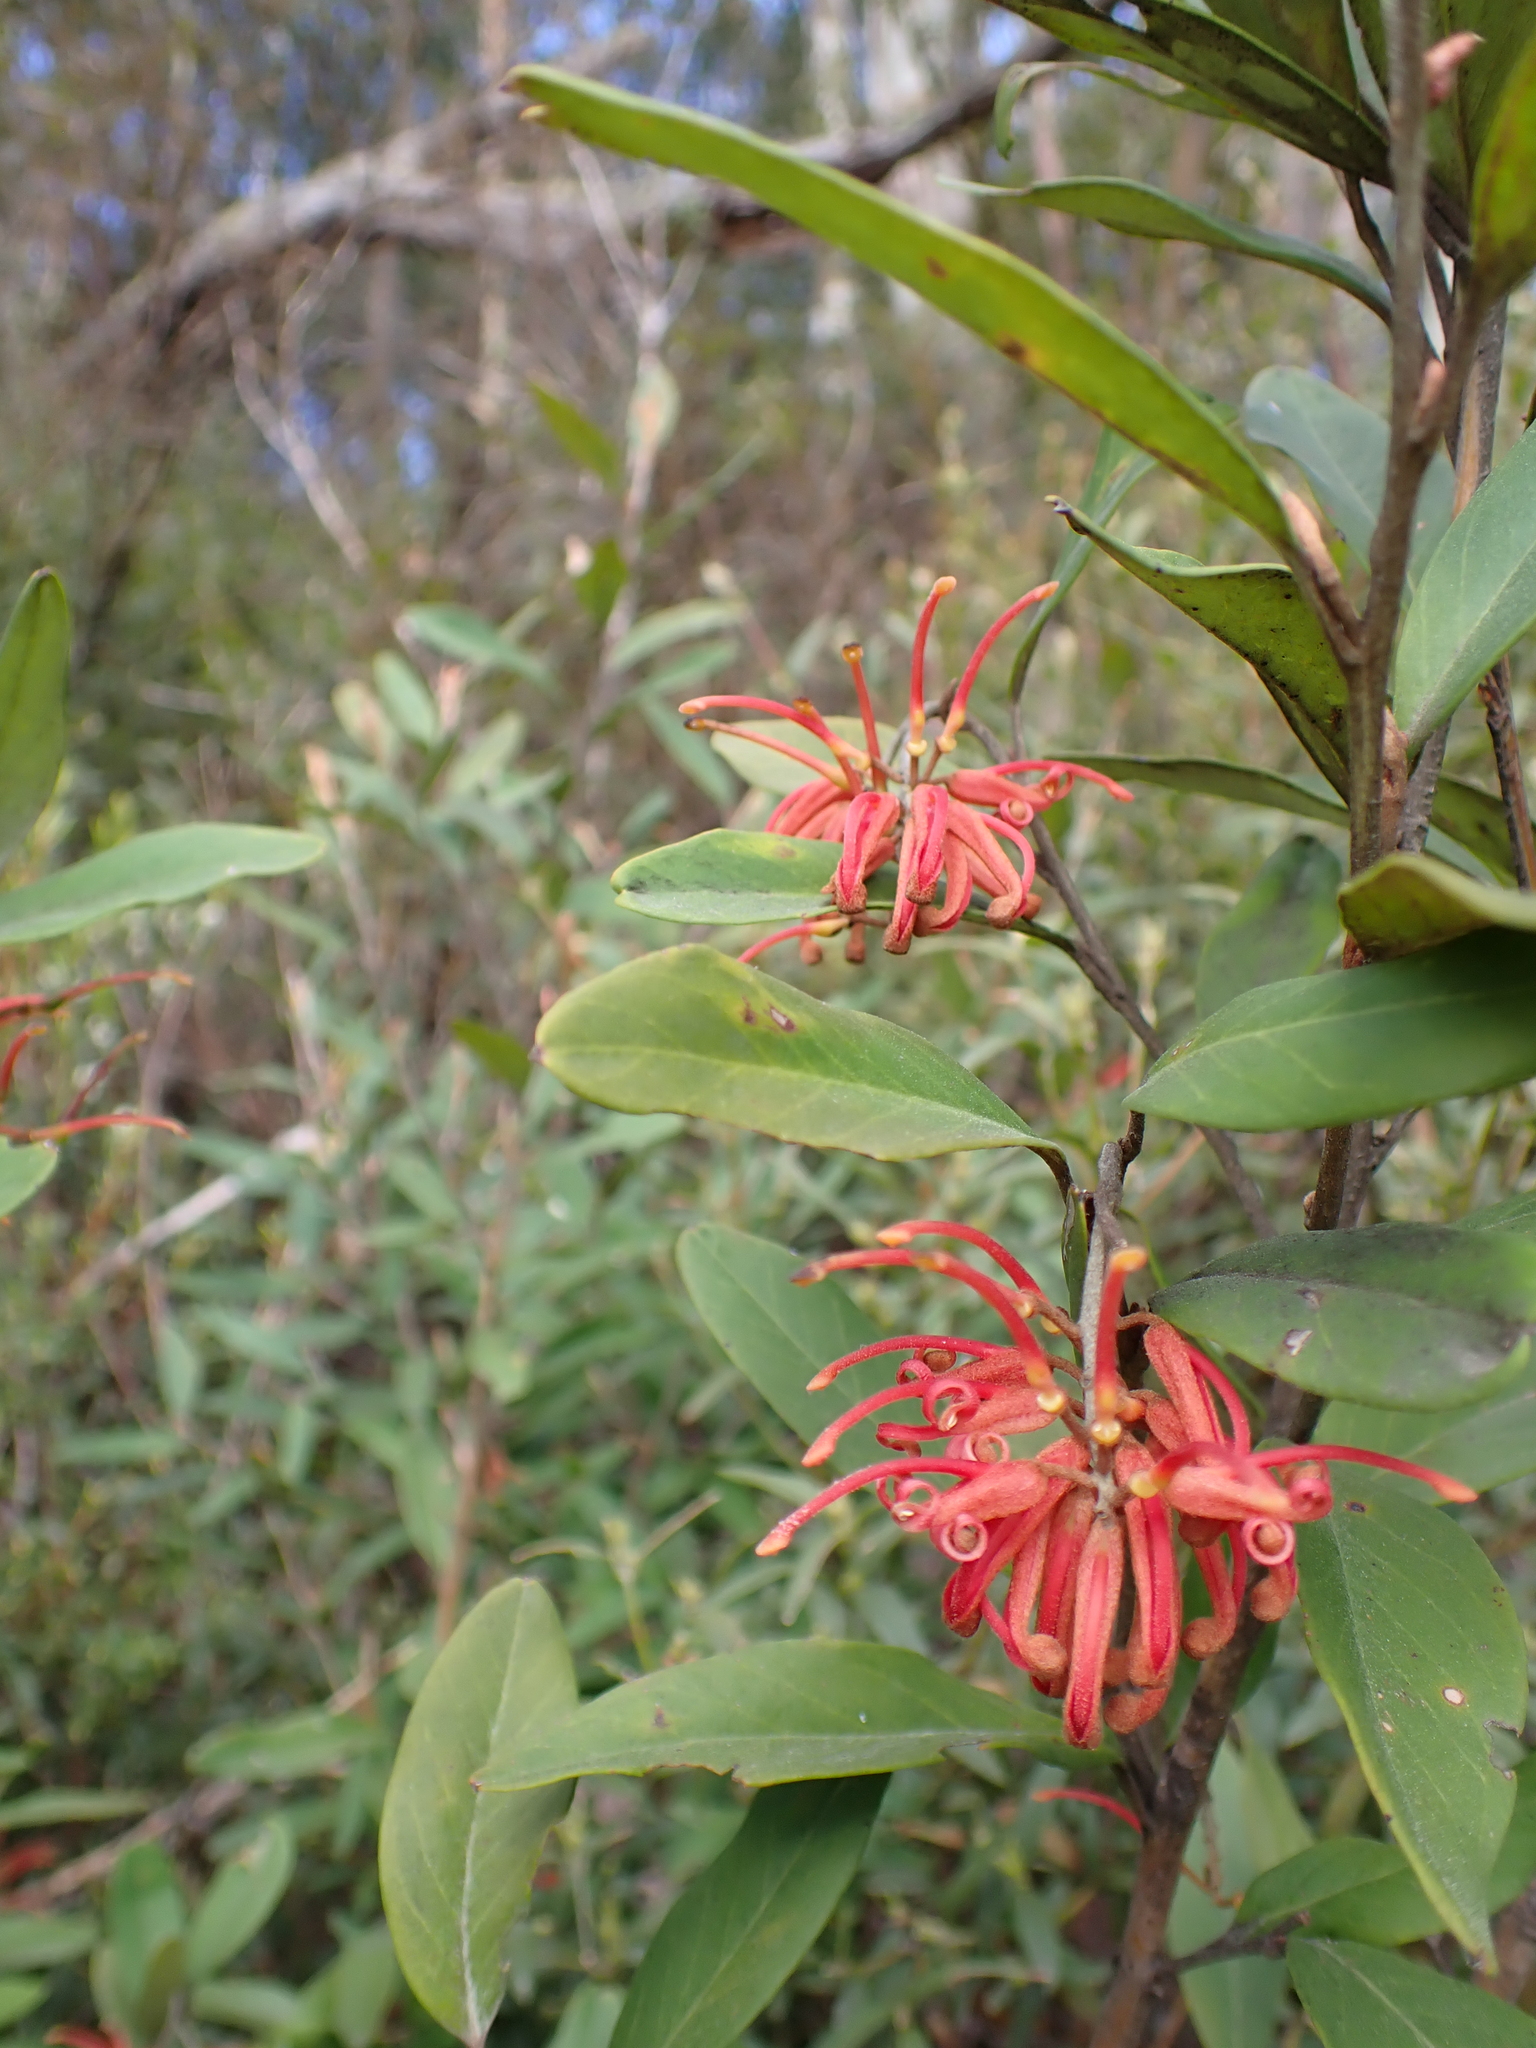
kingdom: Plantae
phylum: Tracheophyta
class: Magnoliopsida
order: Proteales
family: Proteaceae
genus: Grevillea
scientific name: Grevillea victoriae
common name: Royal grevillea
